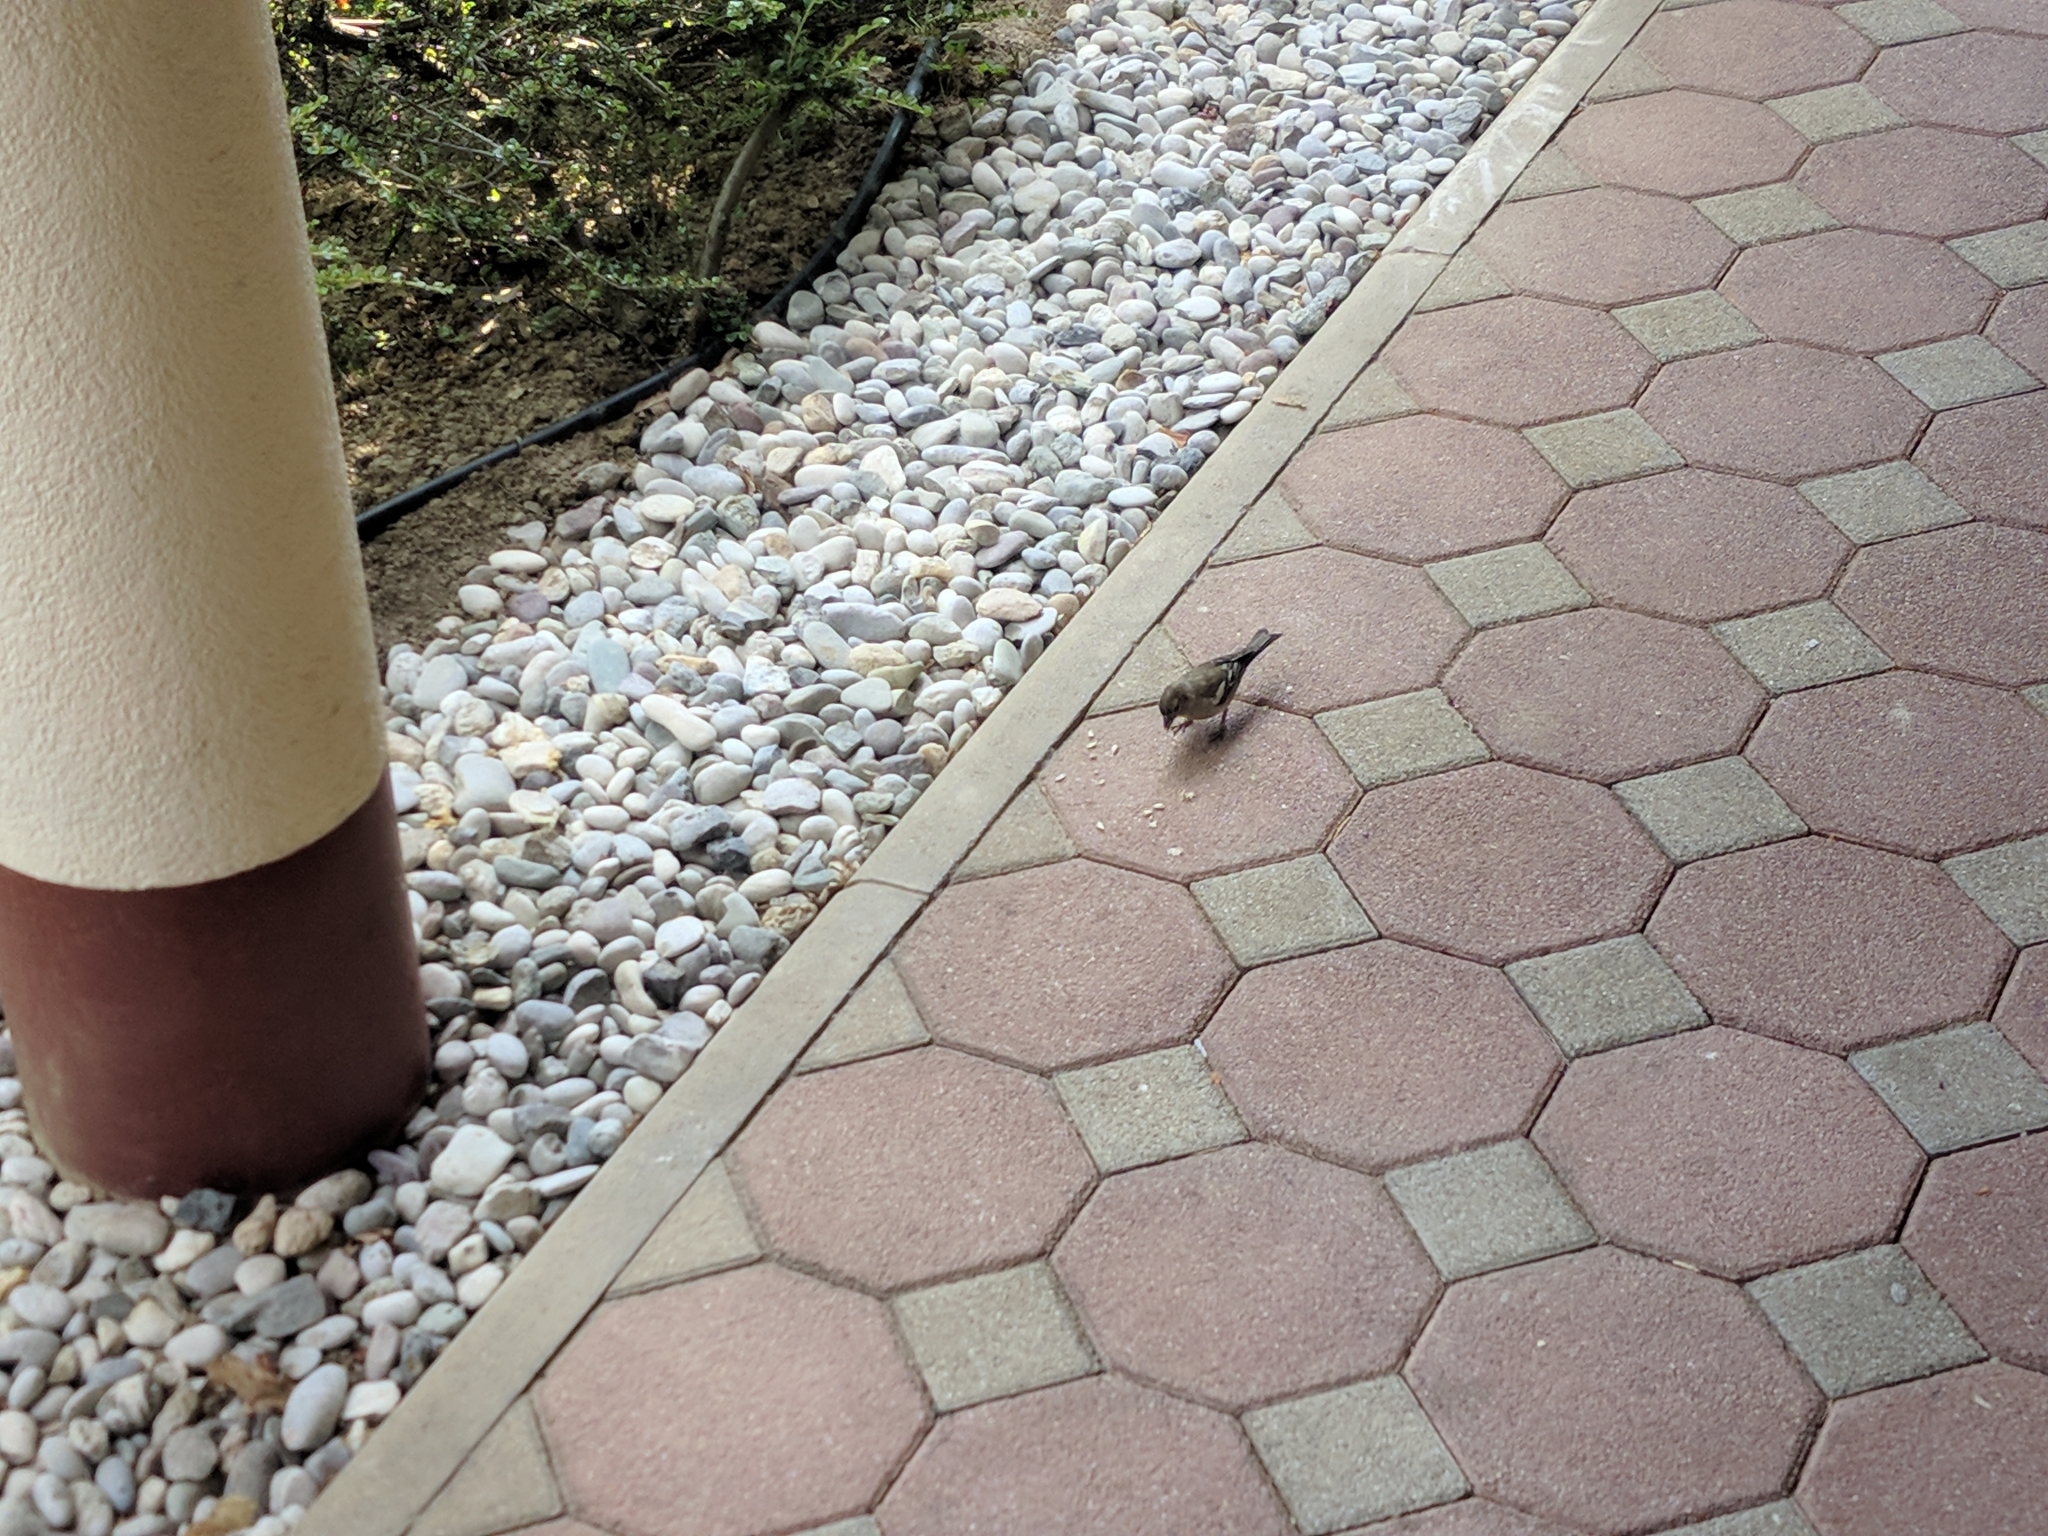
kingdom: Animalia
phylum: Chordata
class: Aves
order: Passeriformes
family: Fringillidae
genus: Fringilla
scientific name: Fringilla coelebs
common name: Common chaffinch
